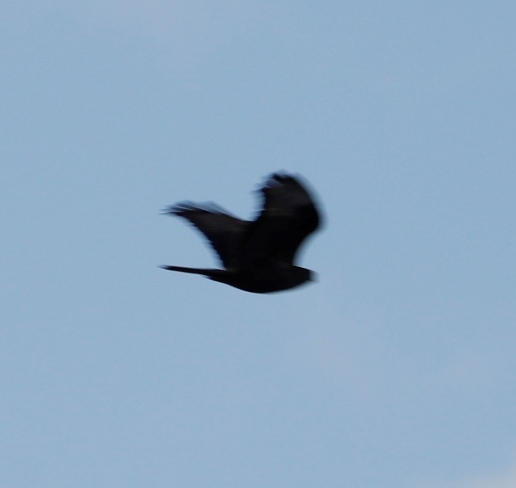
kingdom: Animalia
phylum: Chordata
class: Aves
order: Accipitriformes
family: Accipitridae
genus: Accipiter
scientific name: Accipiter melanoleucus
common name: Black sparrowhawk
